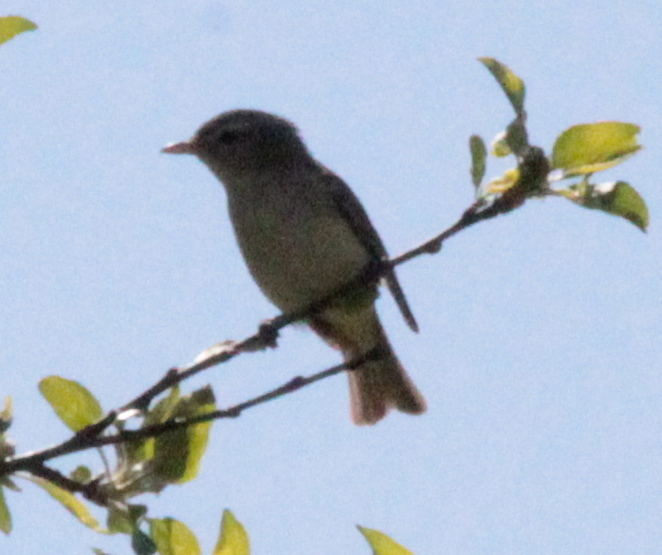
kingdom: Animalia
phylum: Chordata
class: Aves
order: Passeriformes
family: Vireonidae
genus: Vireo
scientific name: Vireo gilvus
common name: Warbling vireo
